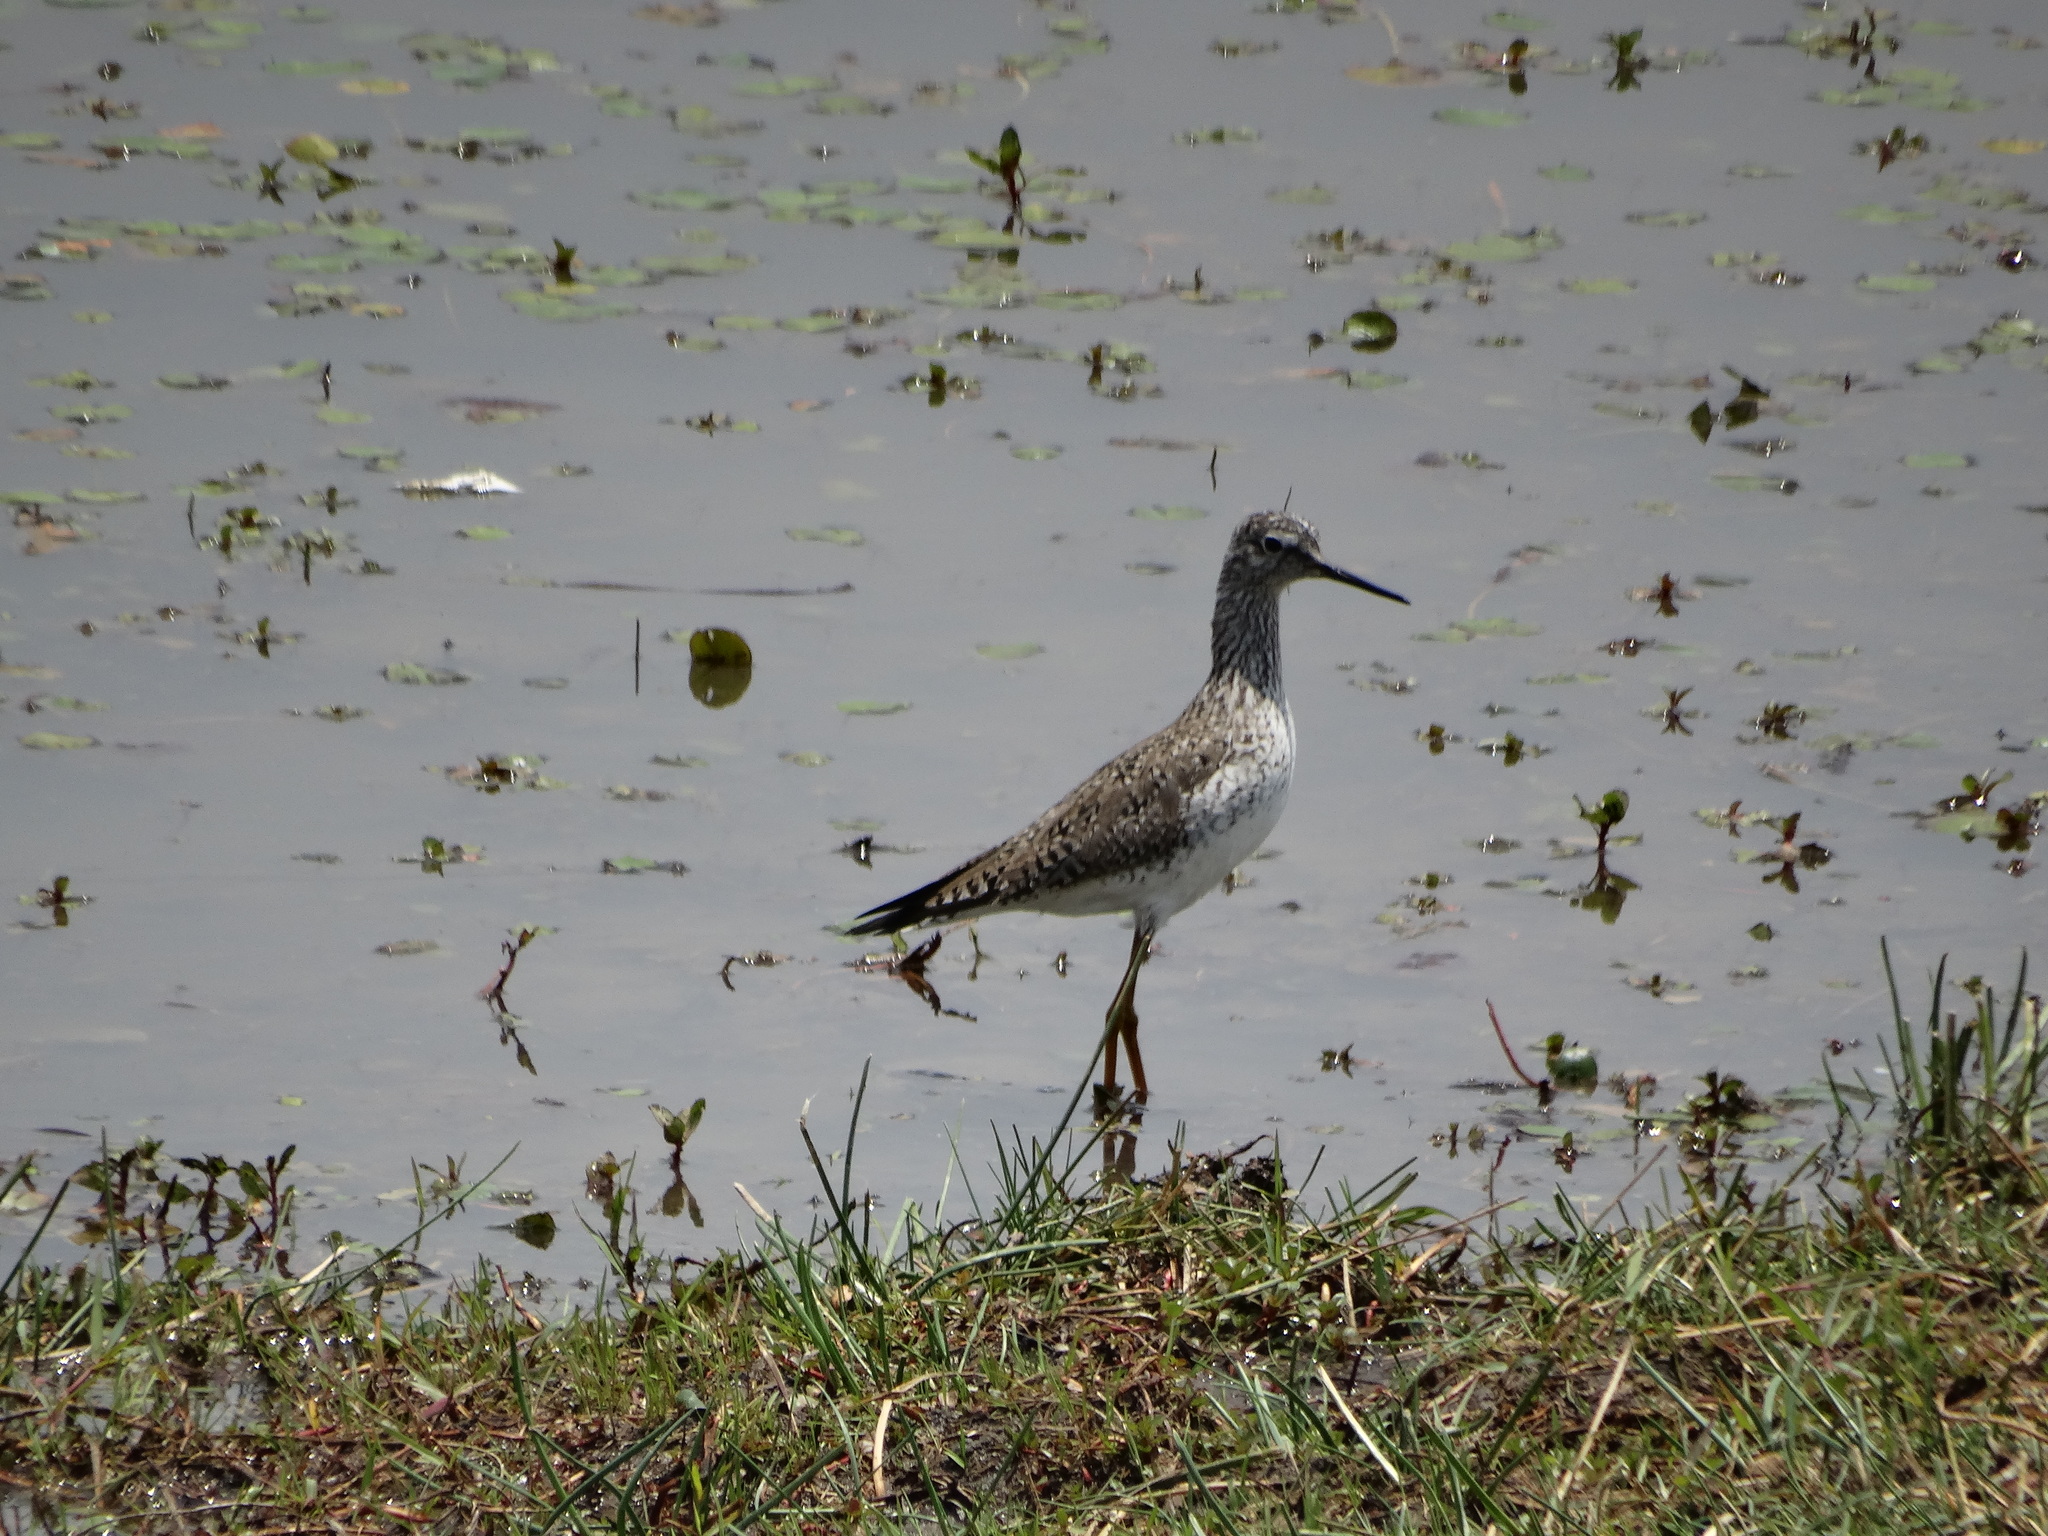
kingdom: Animalia
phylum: Chordata
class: Aves
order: Charadriiformes
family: Scolopacidae
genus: Tringa
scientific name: Tringa flavipes
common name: Lesser yellowlegs
